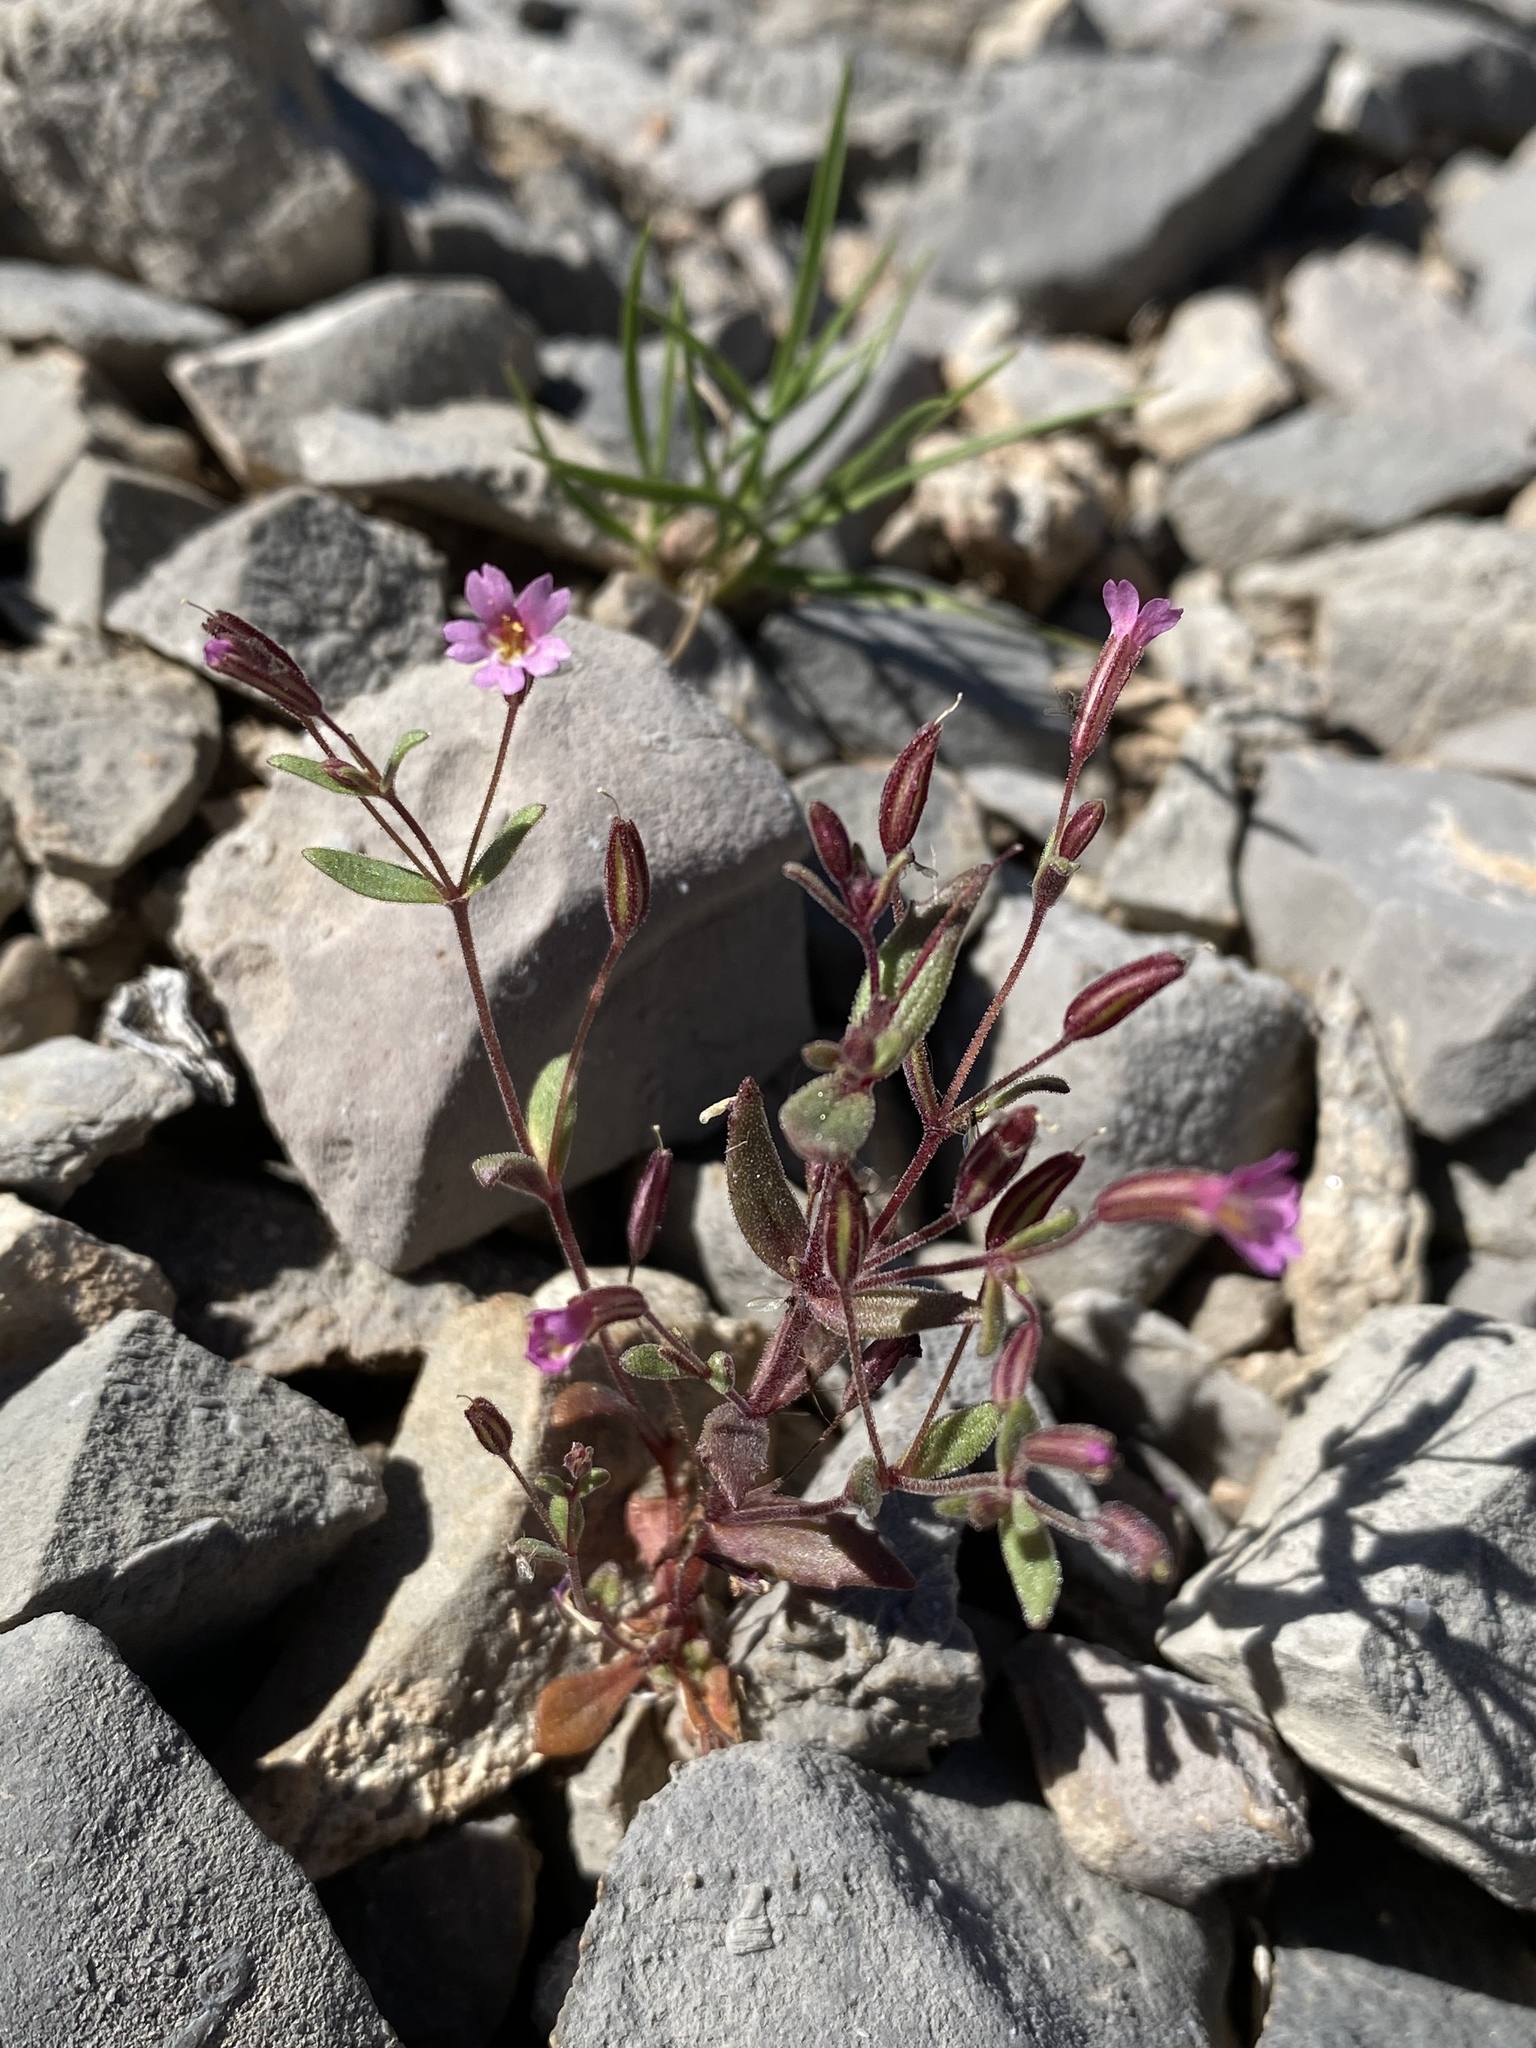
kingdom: Plantae
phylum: Tracheophyta
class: Magnoliopsida
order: Lamiales
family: Phrymaceae
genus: Erythranthe
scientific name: Erythranthe rubella
